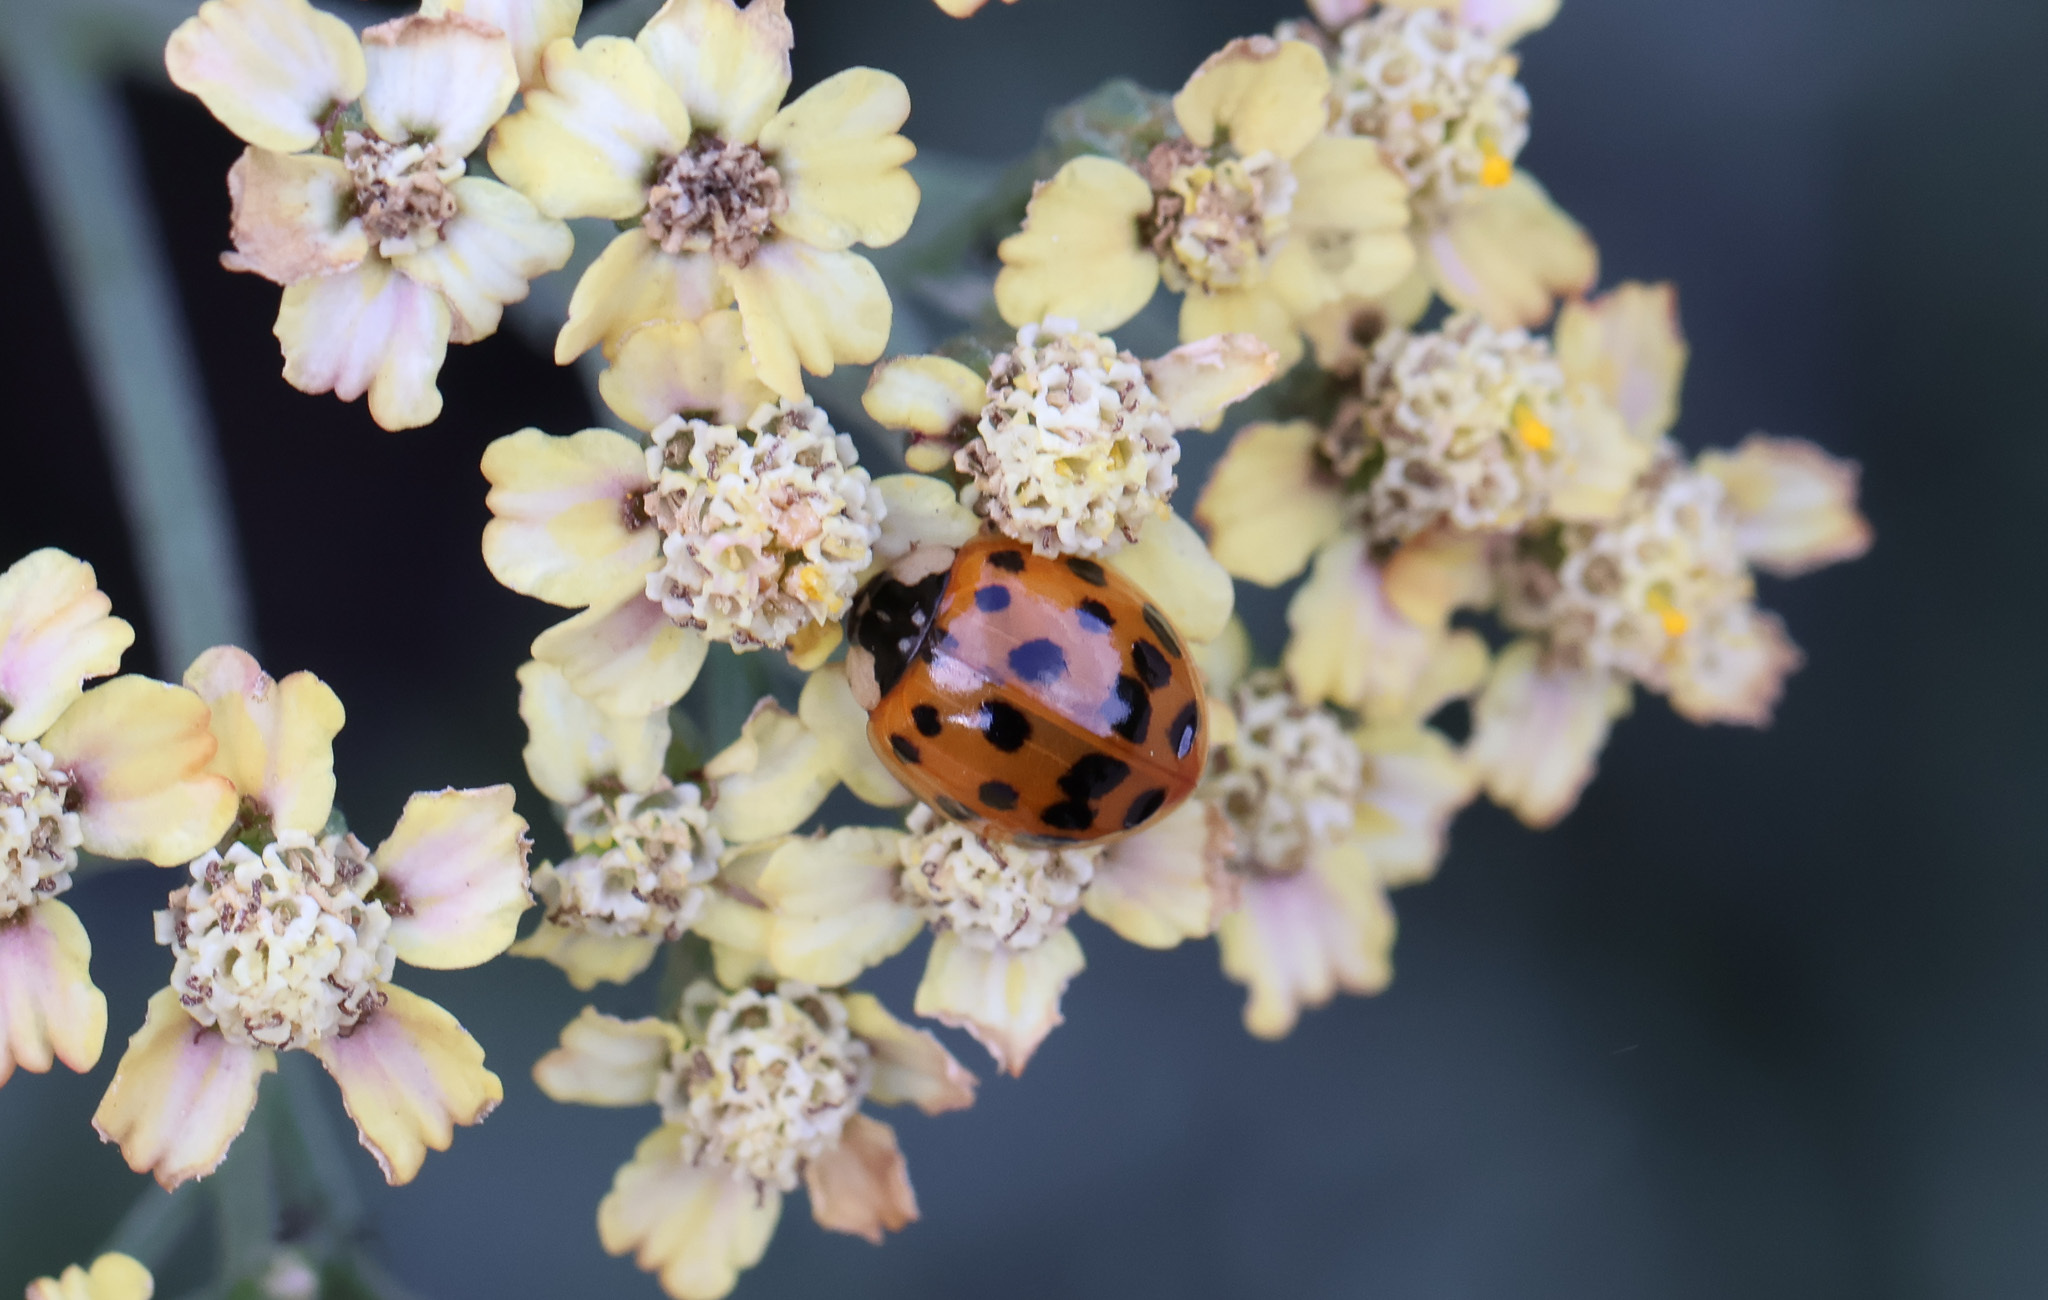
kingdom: Animalia
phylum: Arthropoda
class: Insecta
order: Coleoptera
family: Coccinellidae
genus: Harmonia
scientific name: Harmonia axyridis
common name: Harlequin ladybird
